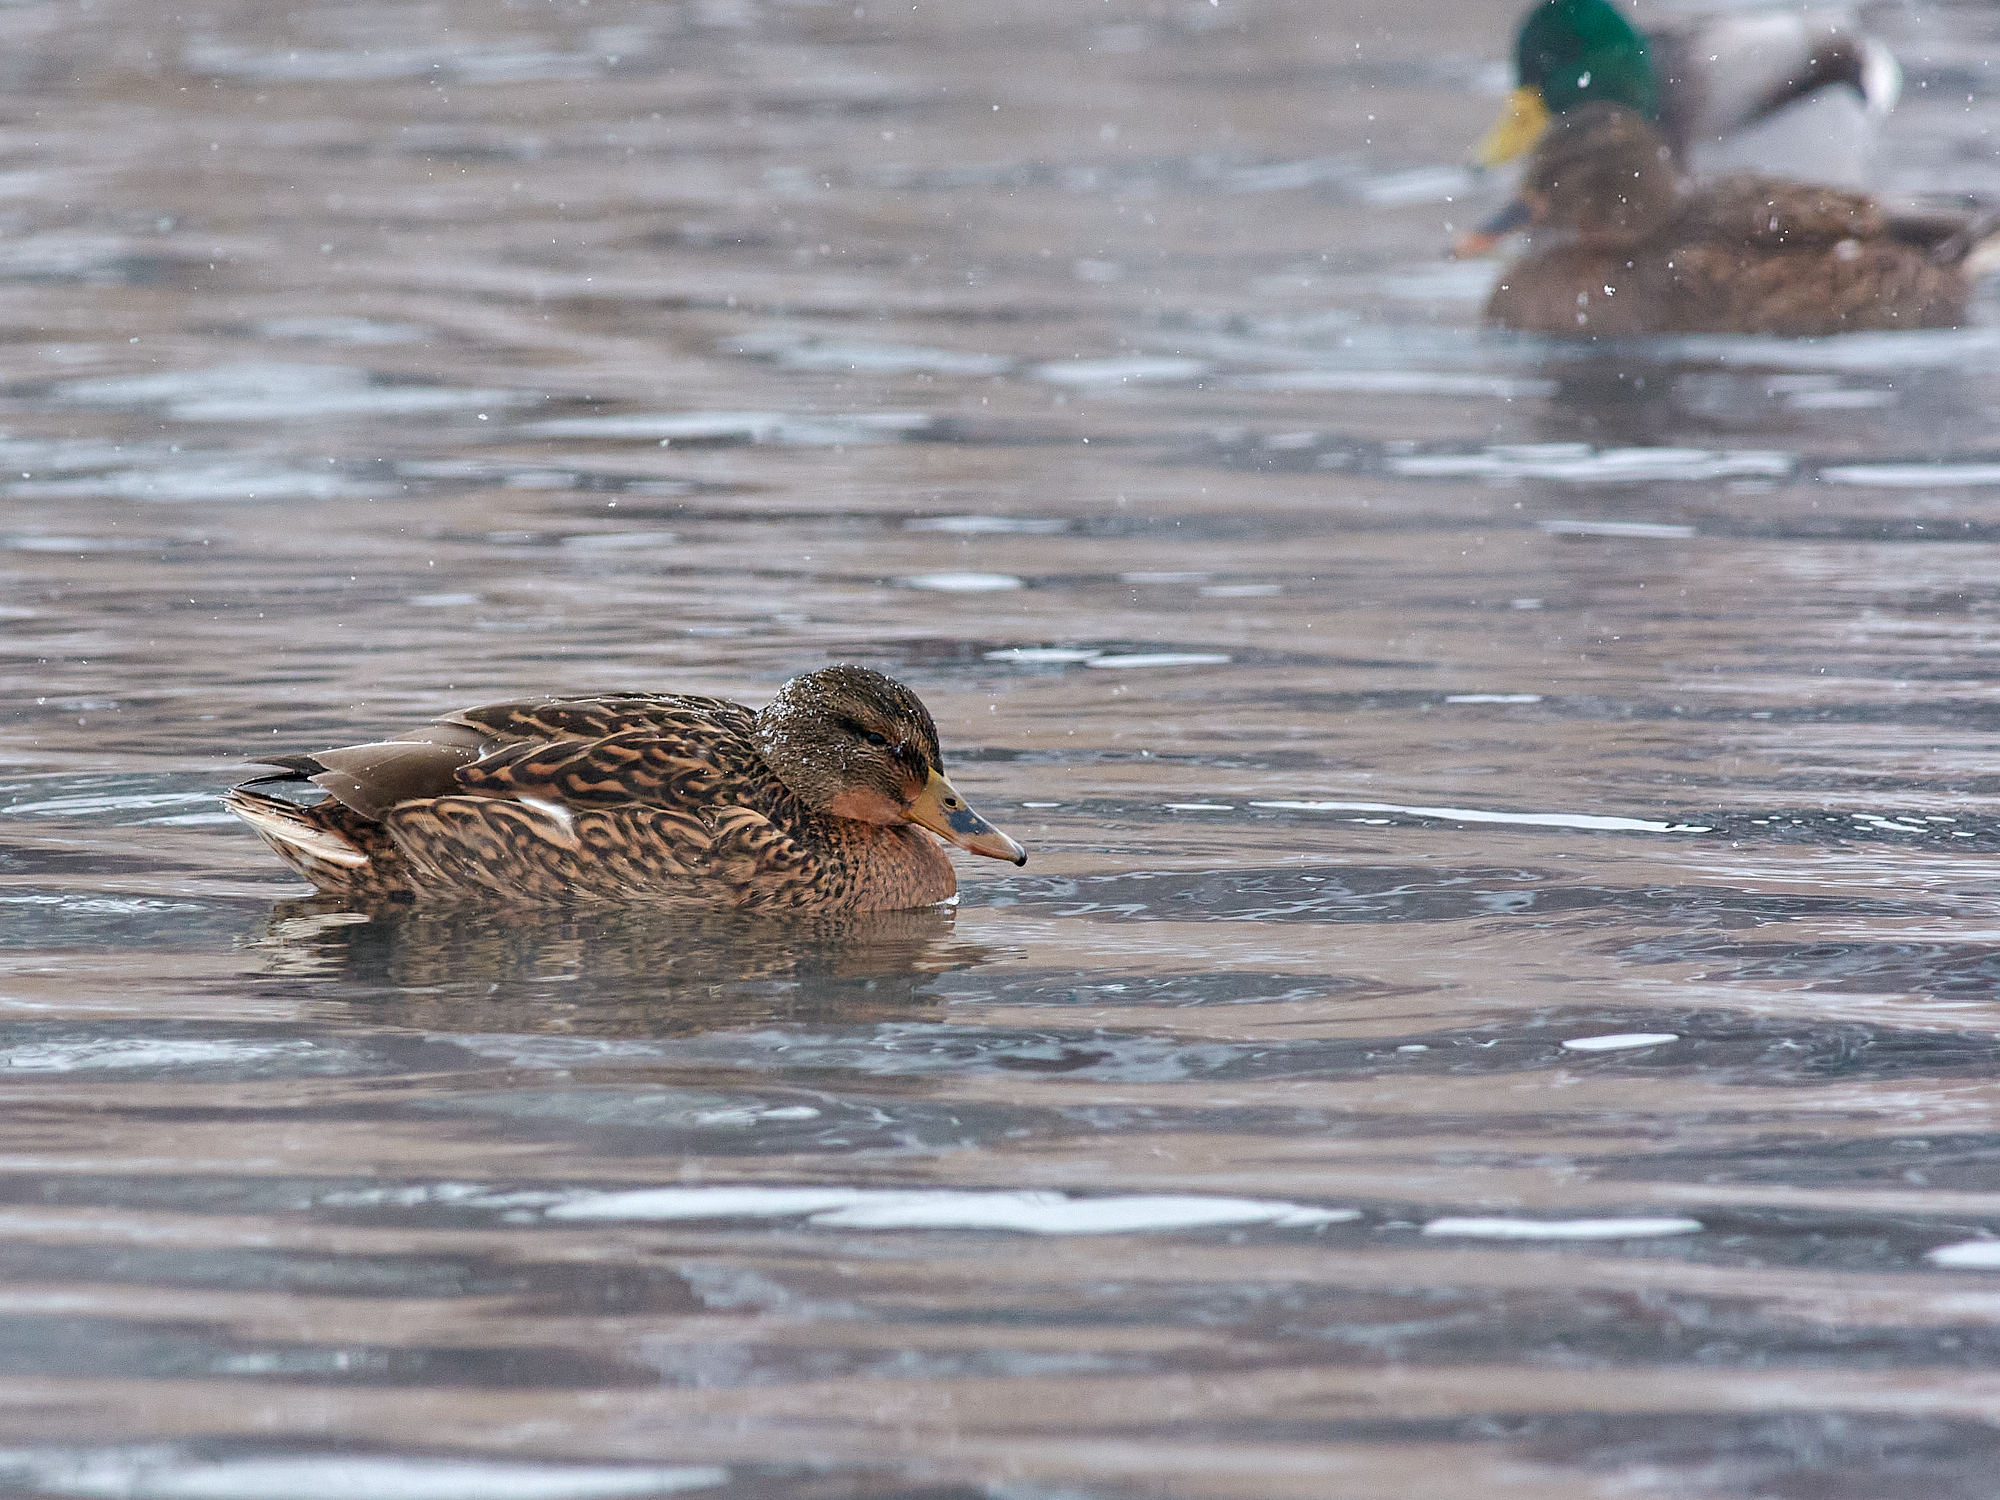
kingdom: Animalia
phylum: Chordata
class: Aves
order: Anseriformes
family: Anatidae
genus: Anas
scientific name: Anas platyrhynchos
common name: Mallard
